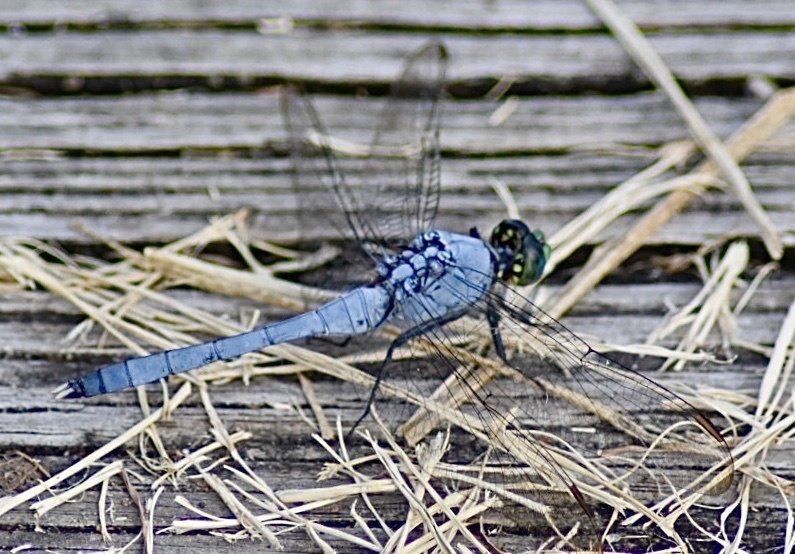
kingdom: Animalia
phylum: Arthropoda
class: Insecta
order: Odonata
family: Libellulidae
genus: Erythemis
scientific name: Erythemis simplicicollis
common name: Eastern pondhawk
